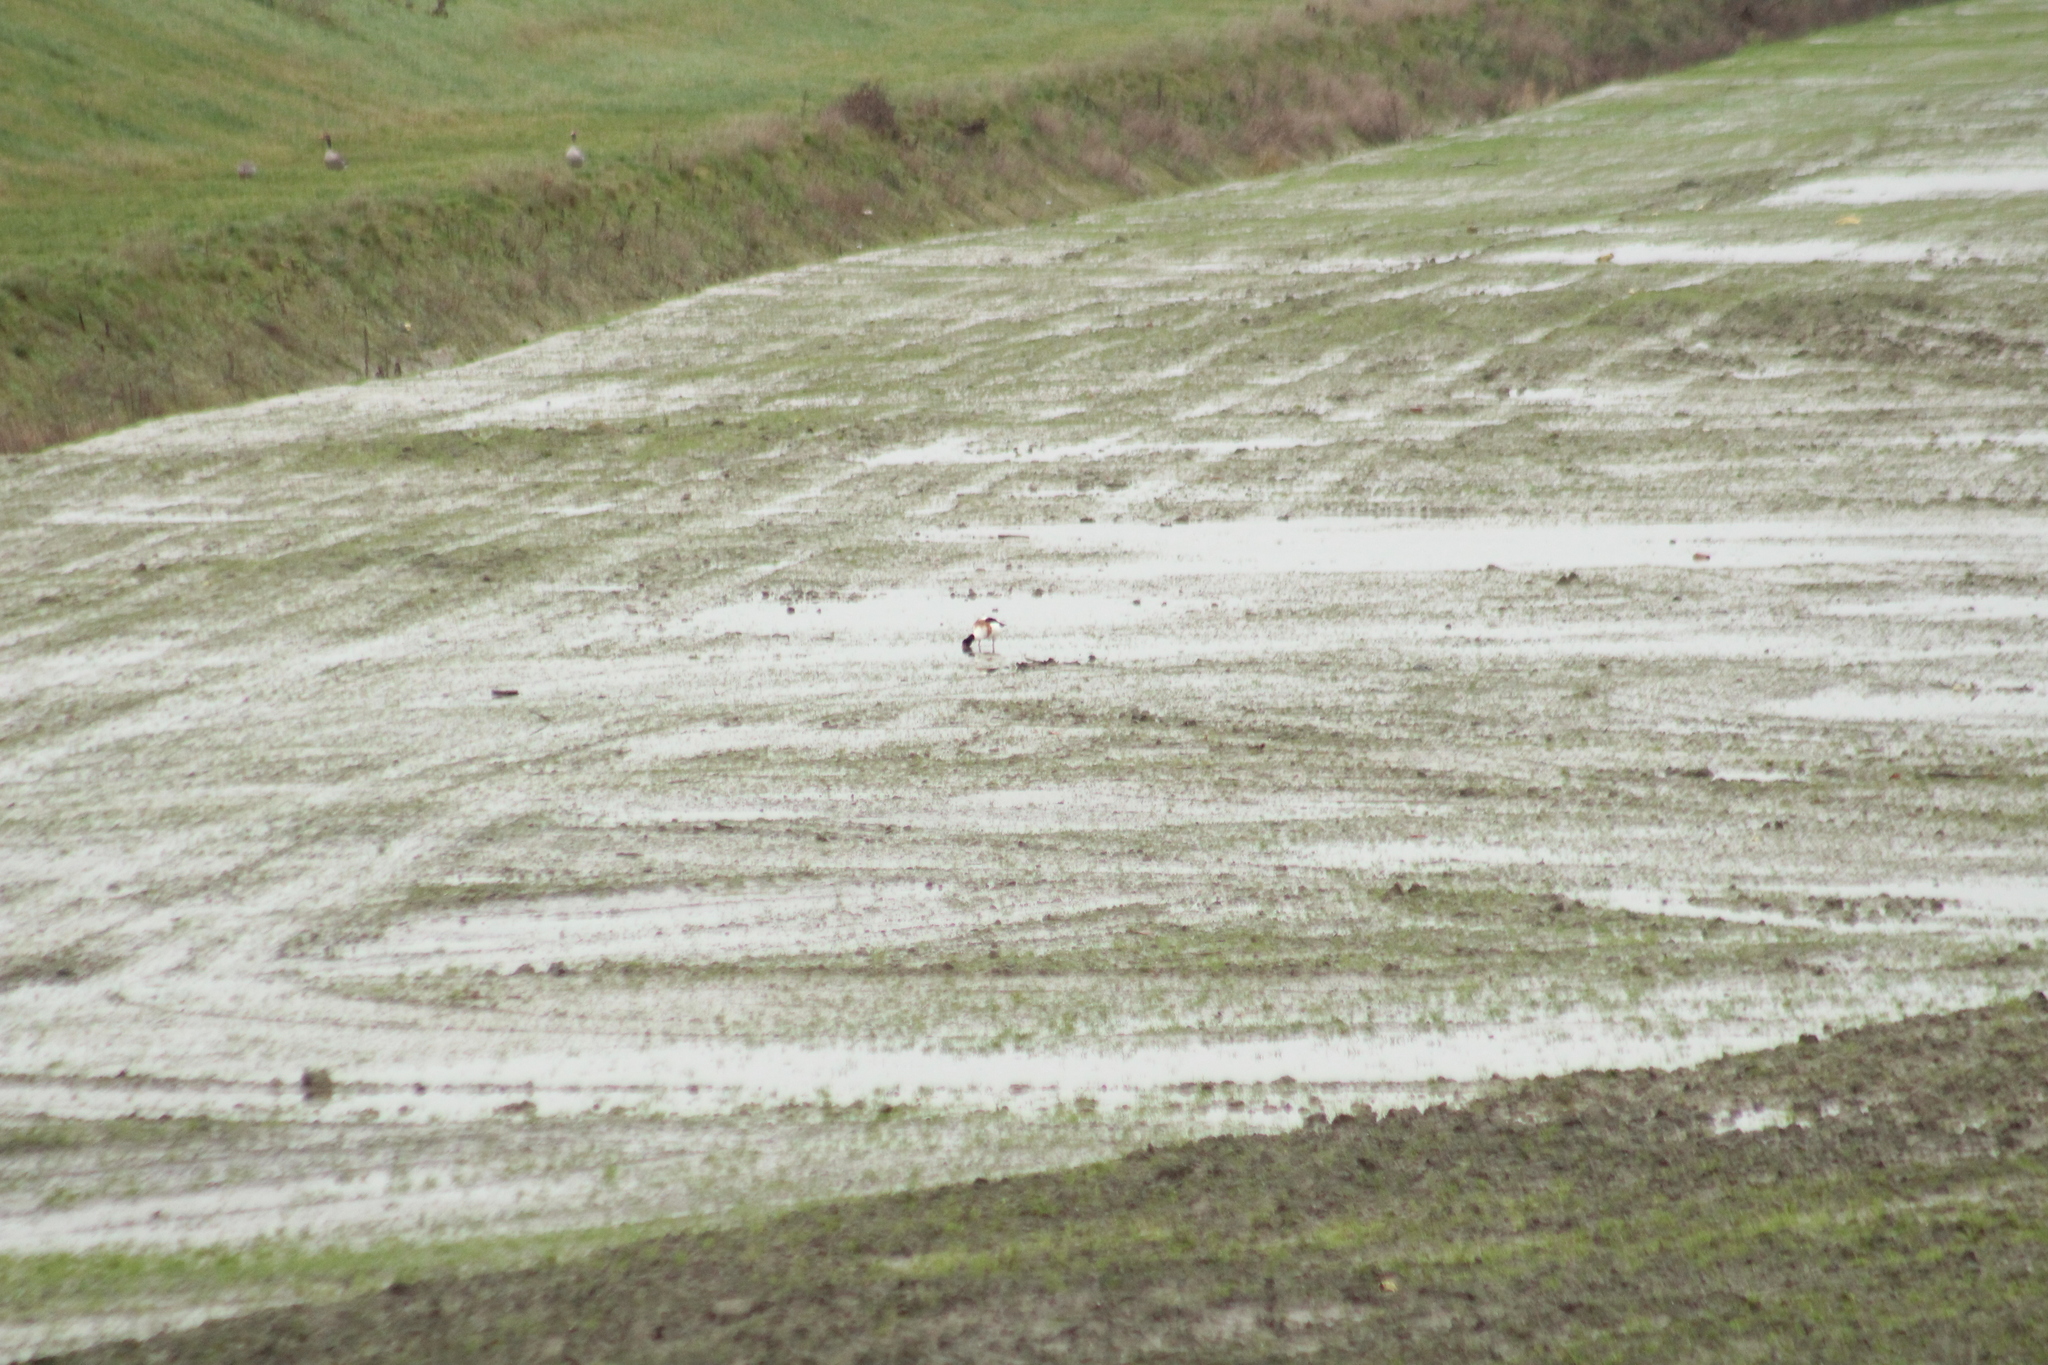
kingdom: Animalia
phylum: Chordata
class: Aves
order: Anseriformes
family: Anatidae
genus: Tadorna
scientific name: Tadorna tadorna
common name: Common shelduck
